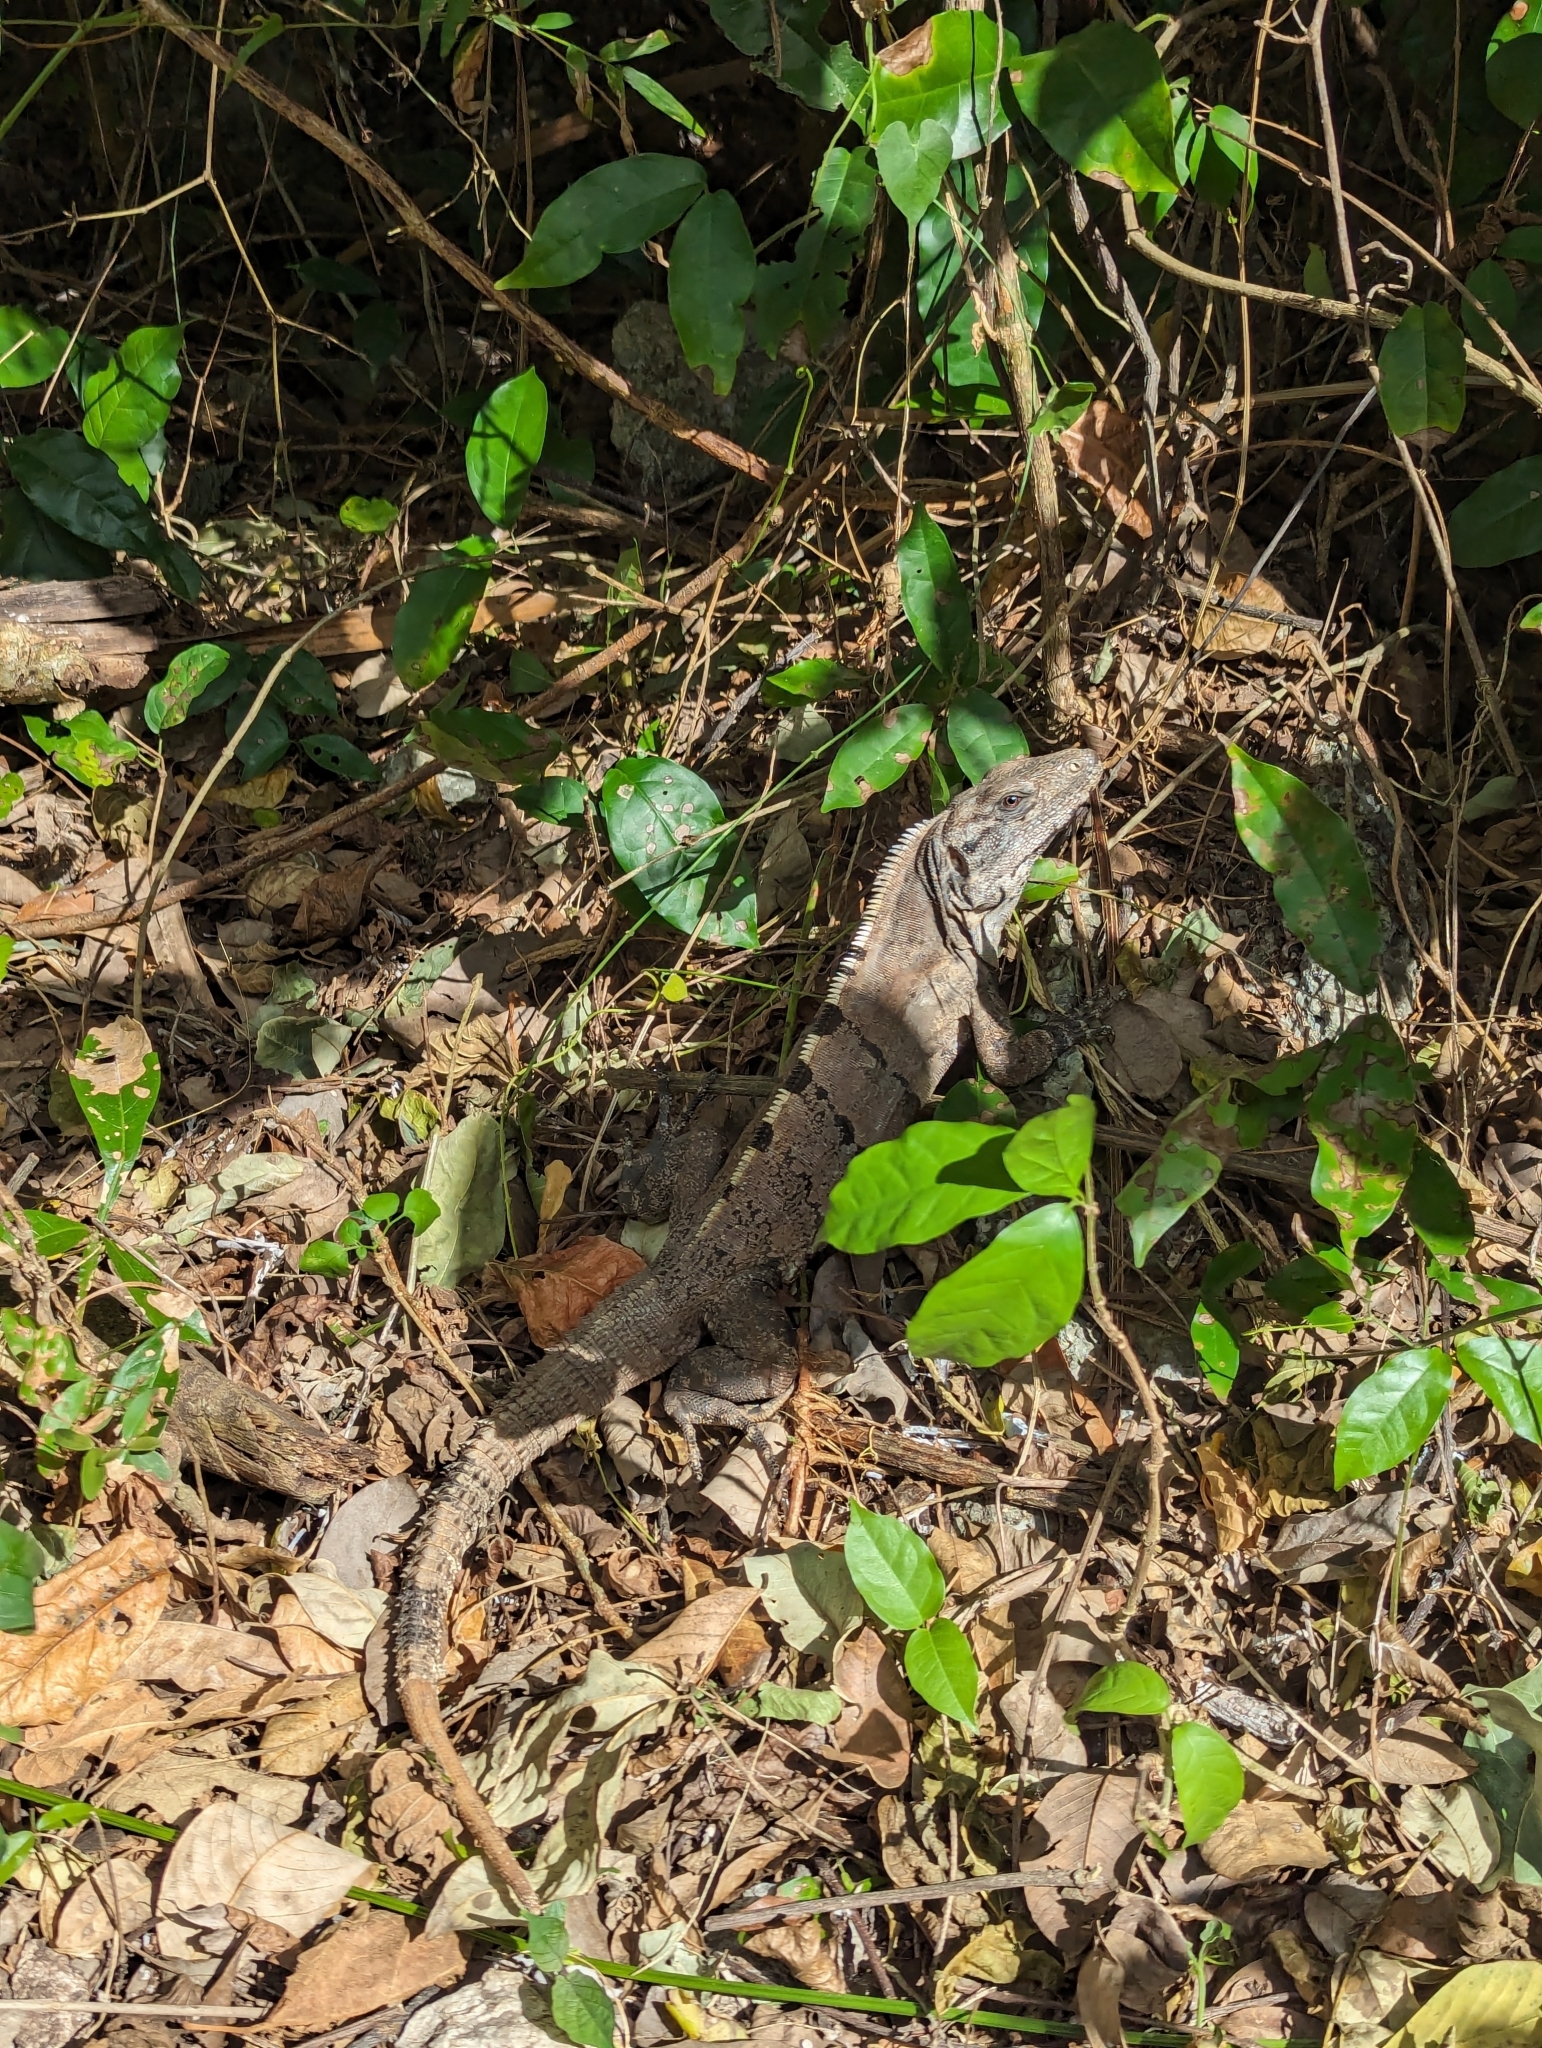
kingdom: Animalia
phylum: Chordata
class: Squamata
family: Iguanidae
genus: Ctenosaura
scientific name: Ctenosaura similis
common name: Black spiny-tailed iguana
